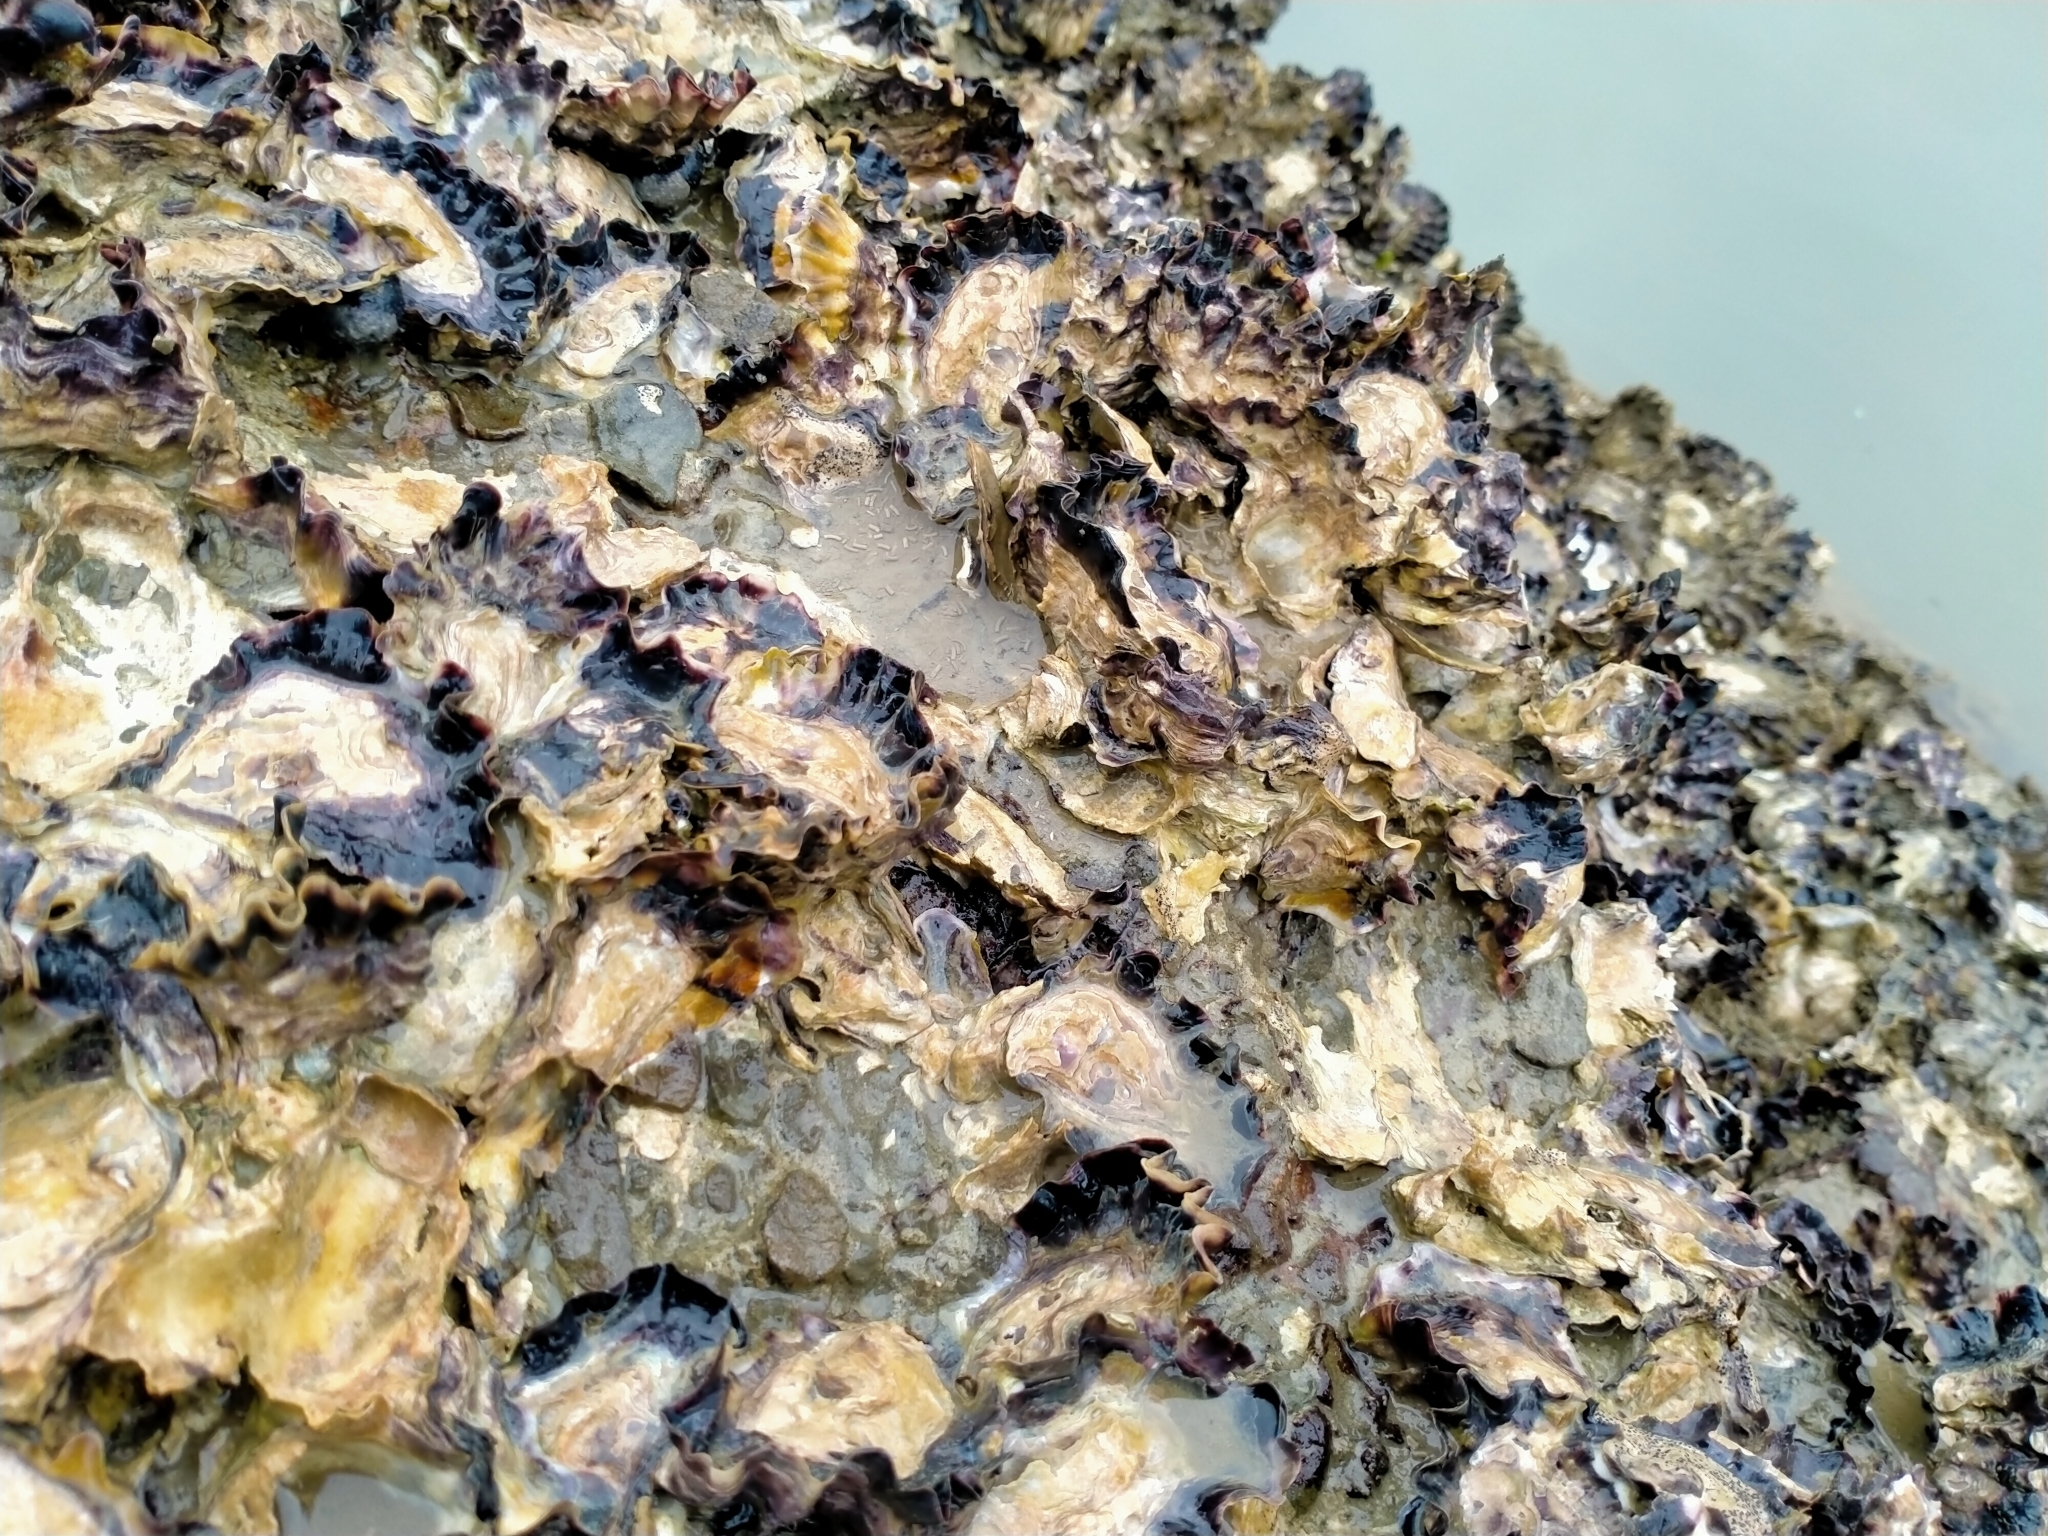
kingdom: Animalia
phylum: Mollusca
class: Bivalvia
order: Ostreida
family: Ostreidae
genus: Saccostrea
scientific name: Saccostrea glomerata
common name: Sydney cupped oyster
